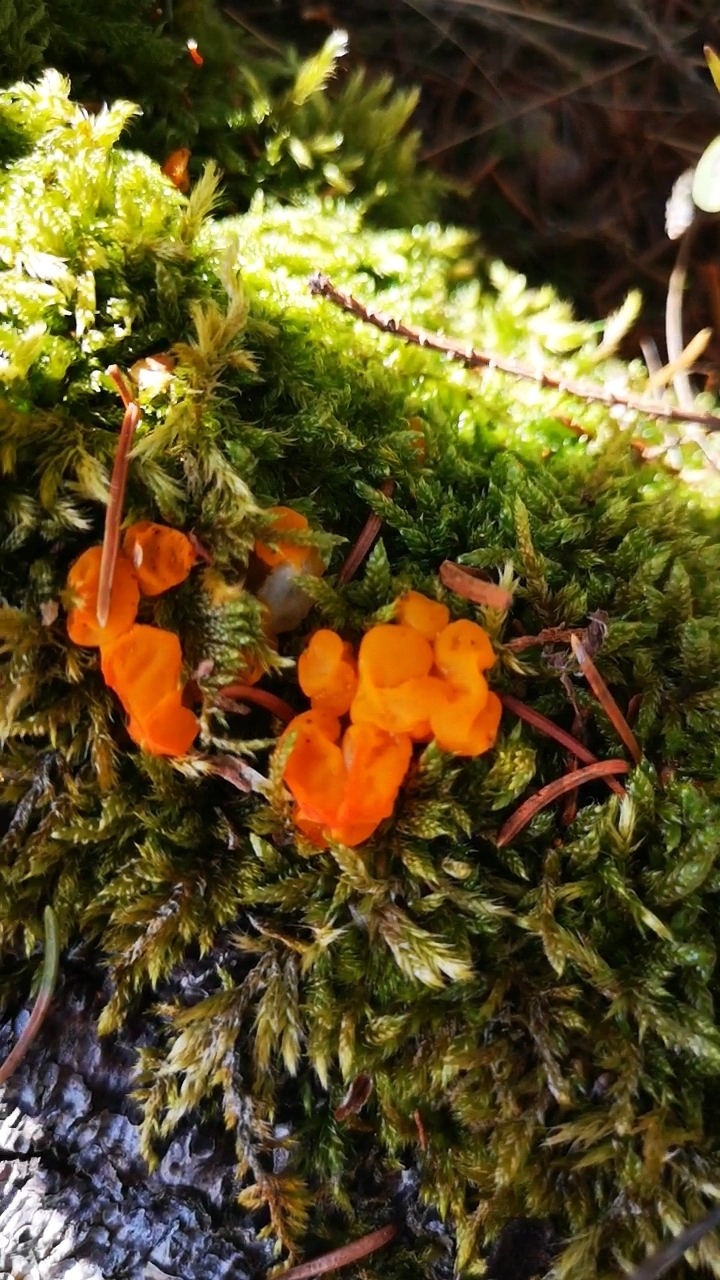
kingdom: Fungi
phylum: Basidiomycota
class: Dacrymycetes
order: Dacrymycetales
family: Dacrymycetaceae
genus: Dacrymyces
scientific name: Dacrymyces chrysospermus
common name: Orange jelly spot
